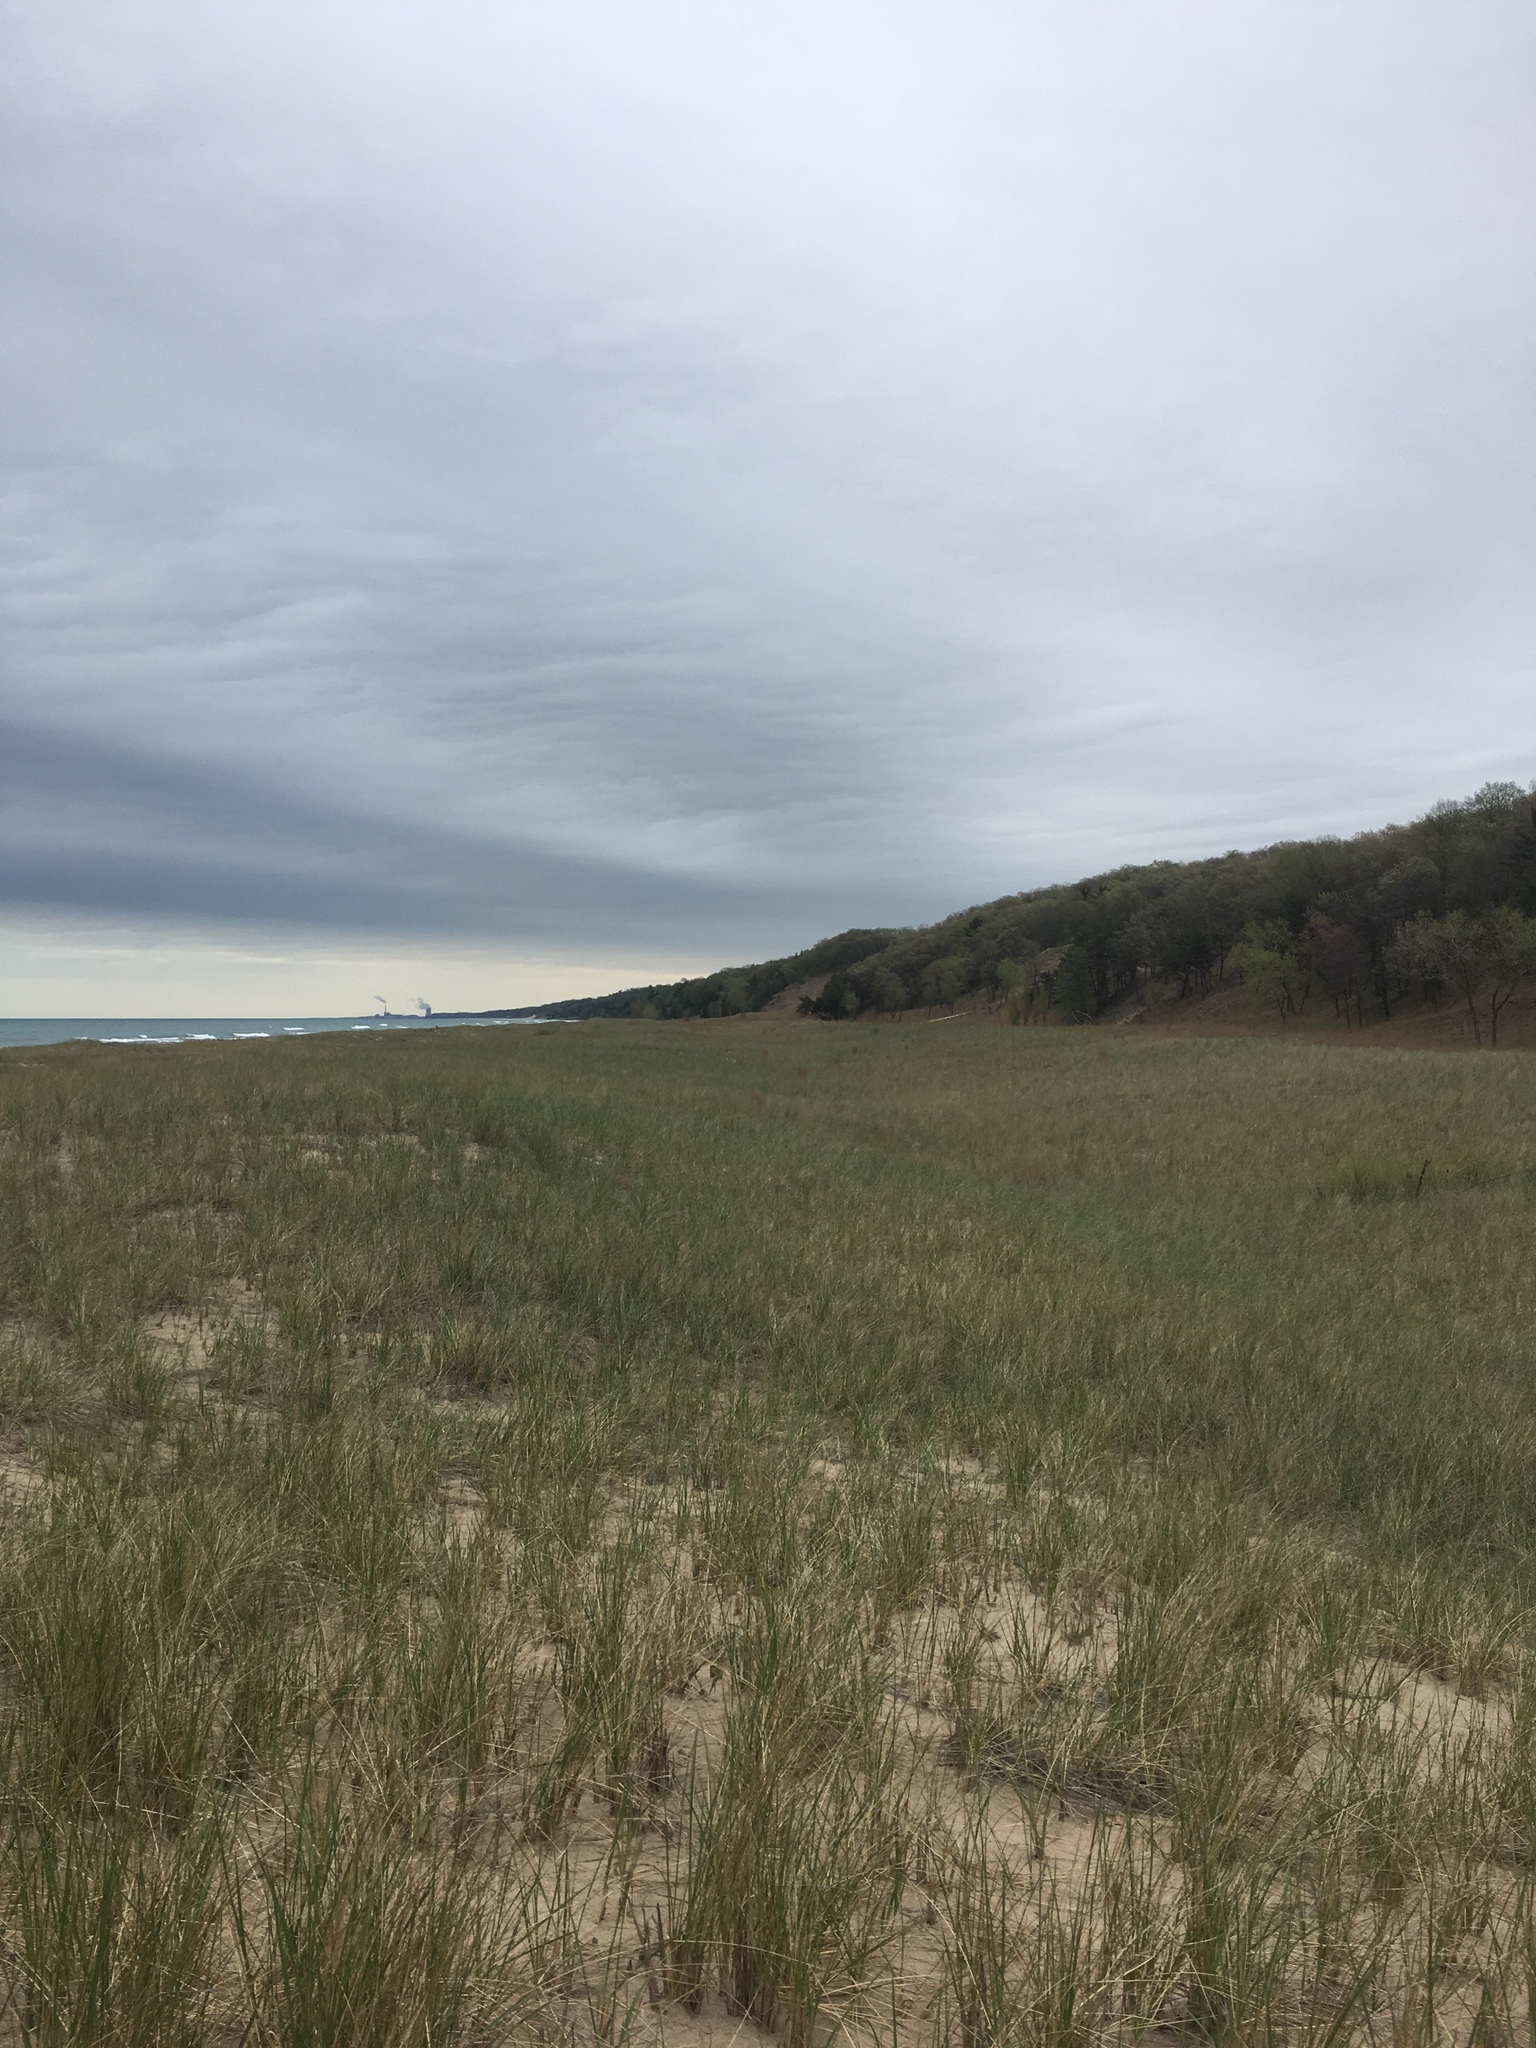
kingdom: Plantae
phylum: Tracheophyta
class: Liliopsida
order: Poales
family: Poaceae
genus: Calamagrostis
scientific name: Calamagrostis breviligulata
